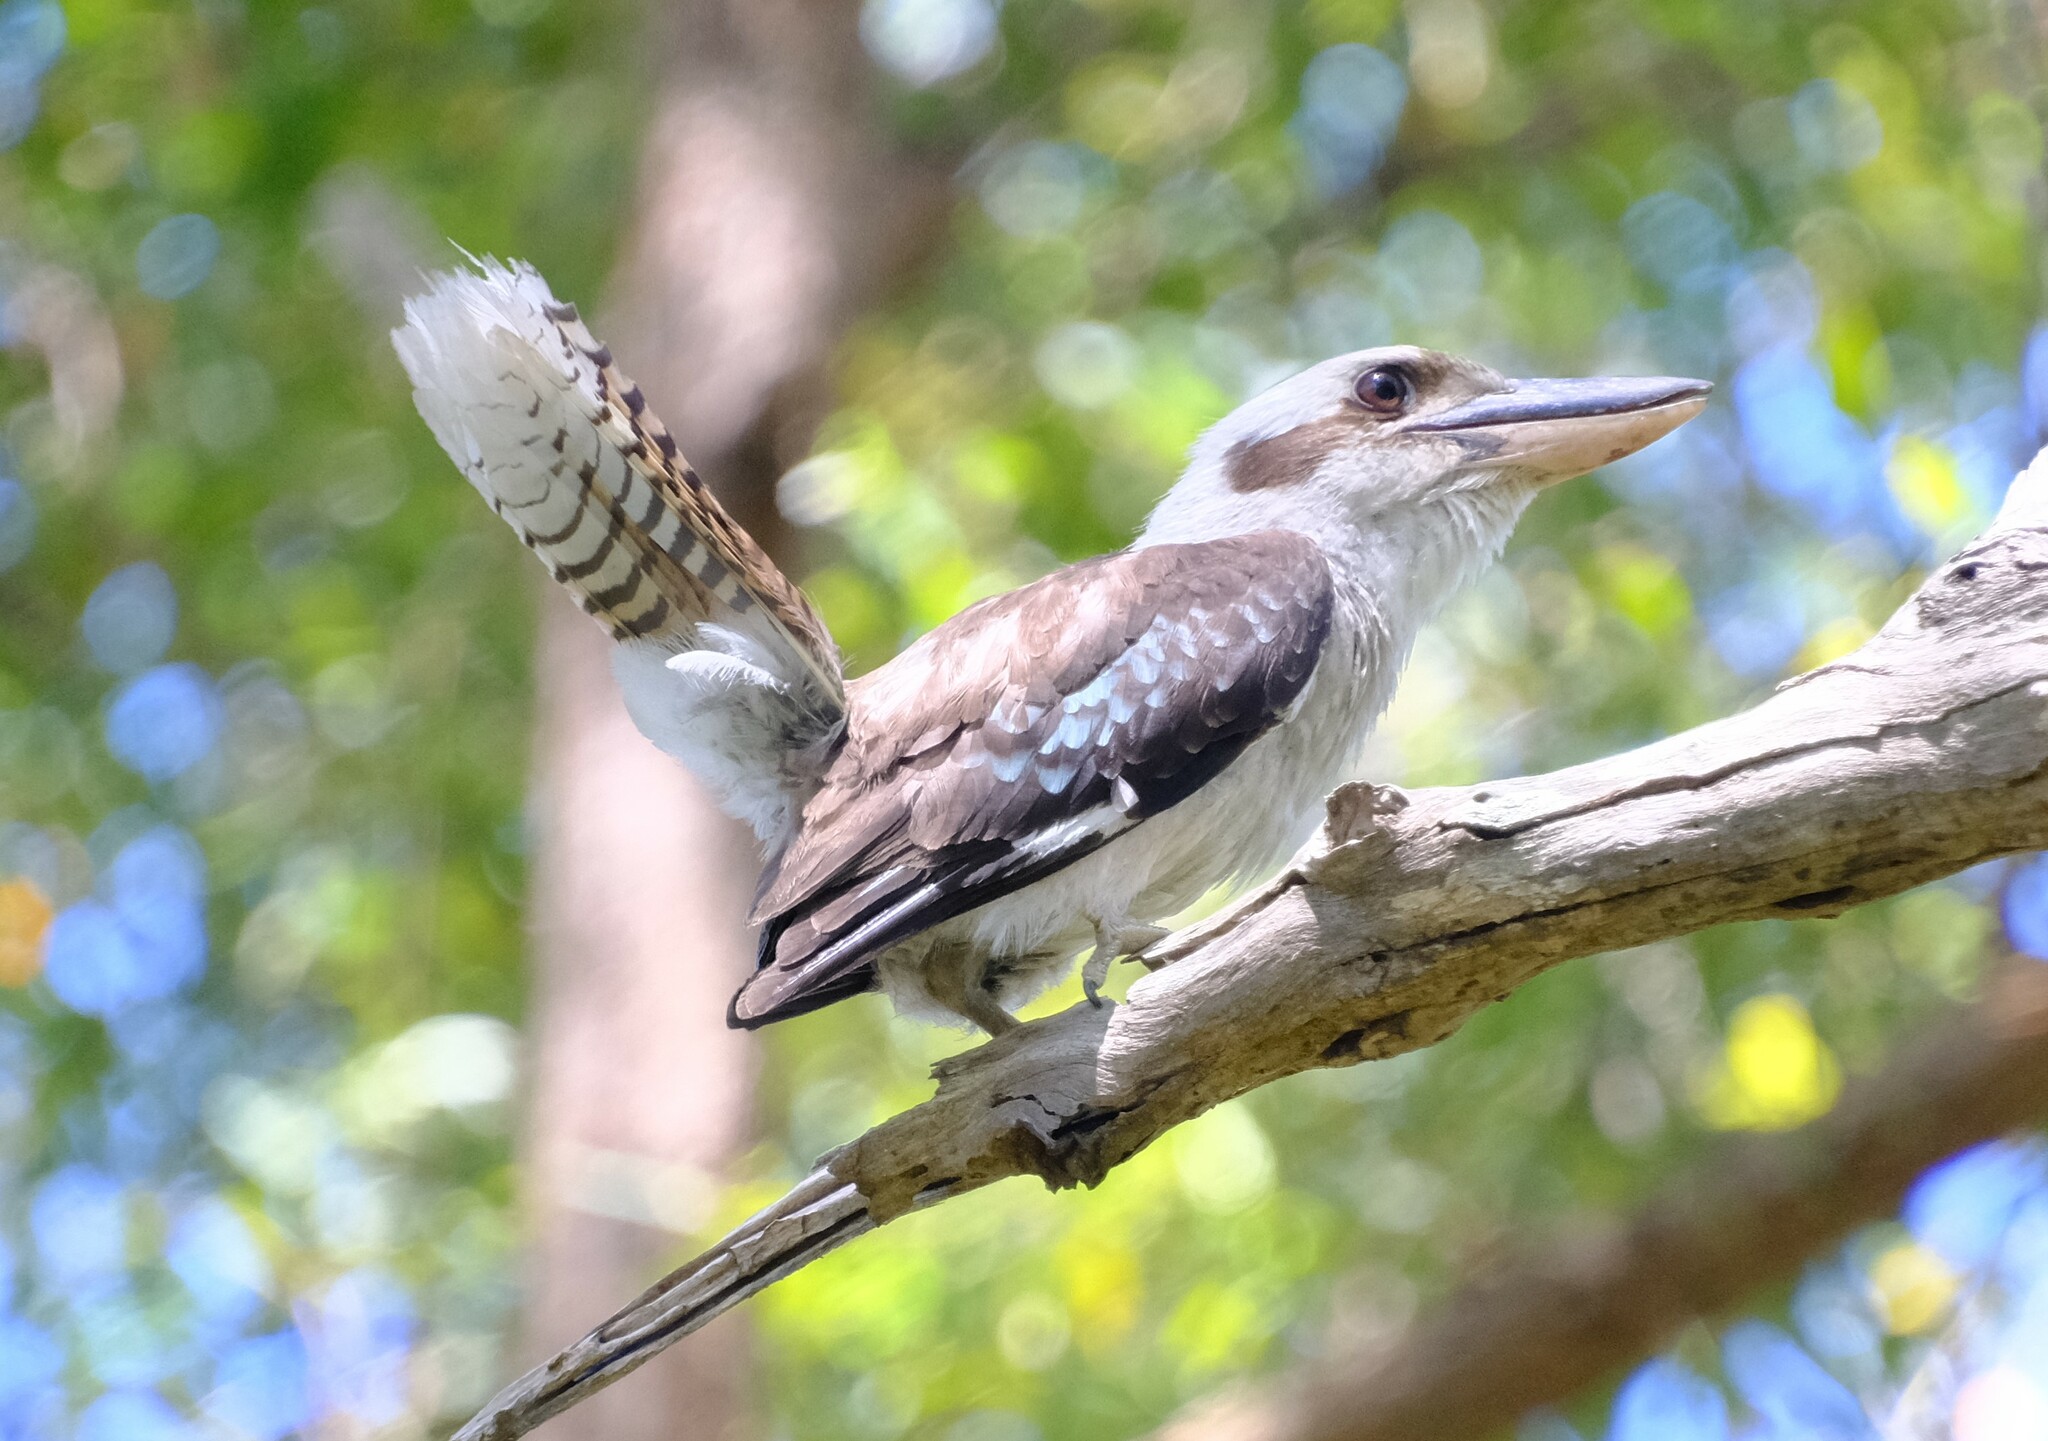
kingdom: Animalia
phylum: Chordata
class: Aves
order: Coraciiformes
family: Alcedinidae
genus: Dacelo
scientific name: Dacelo novaeguineae
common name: Laughing kookaburra
